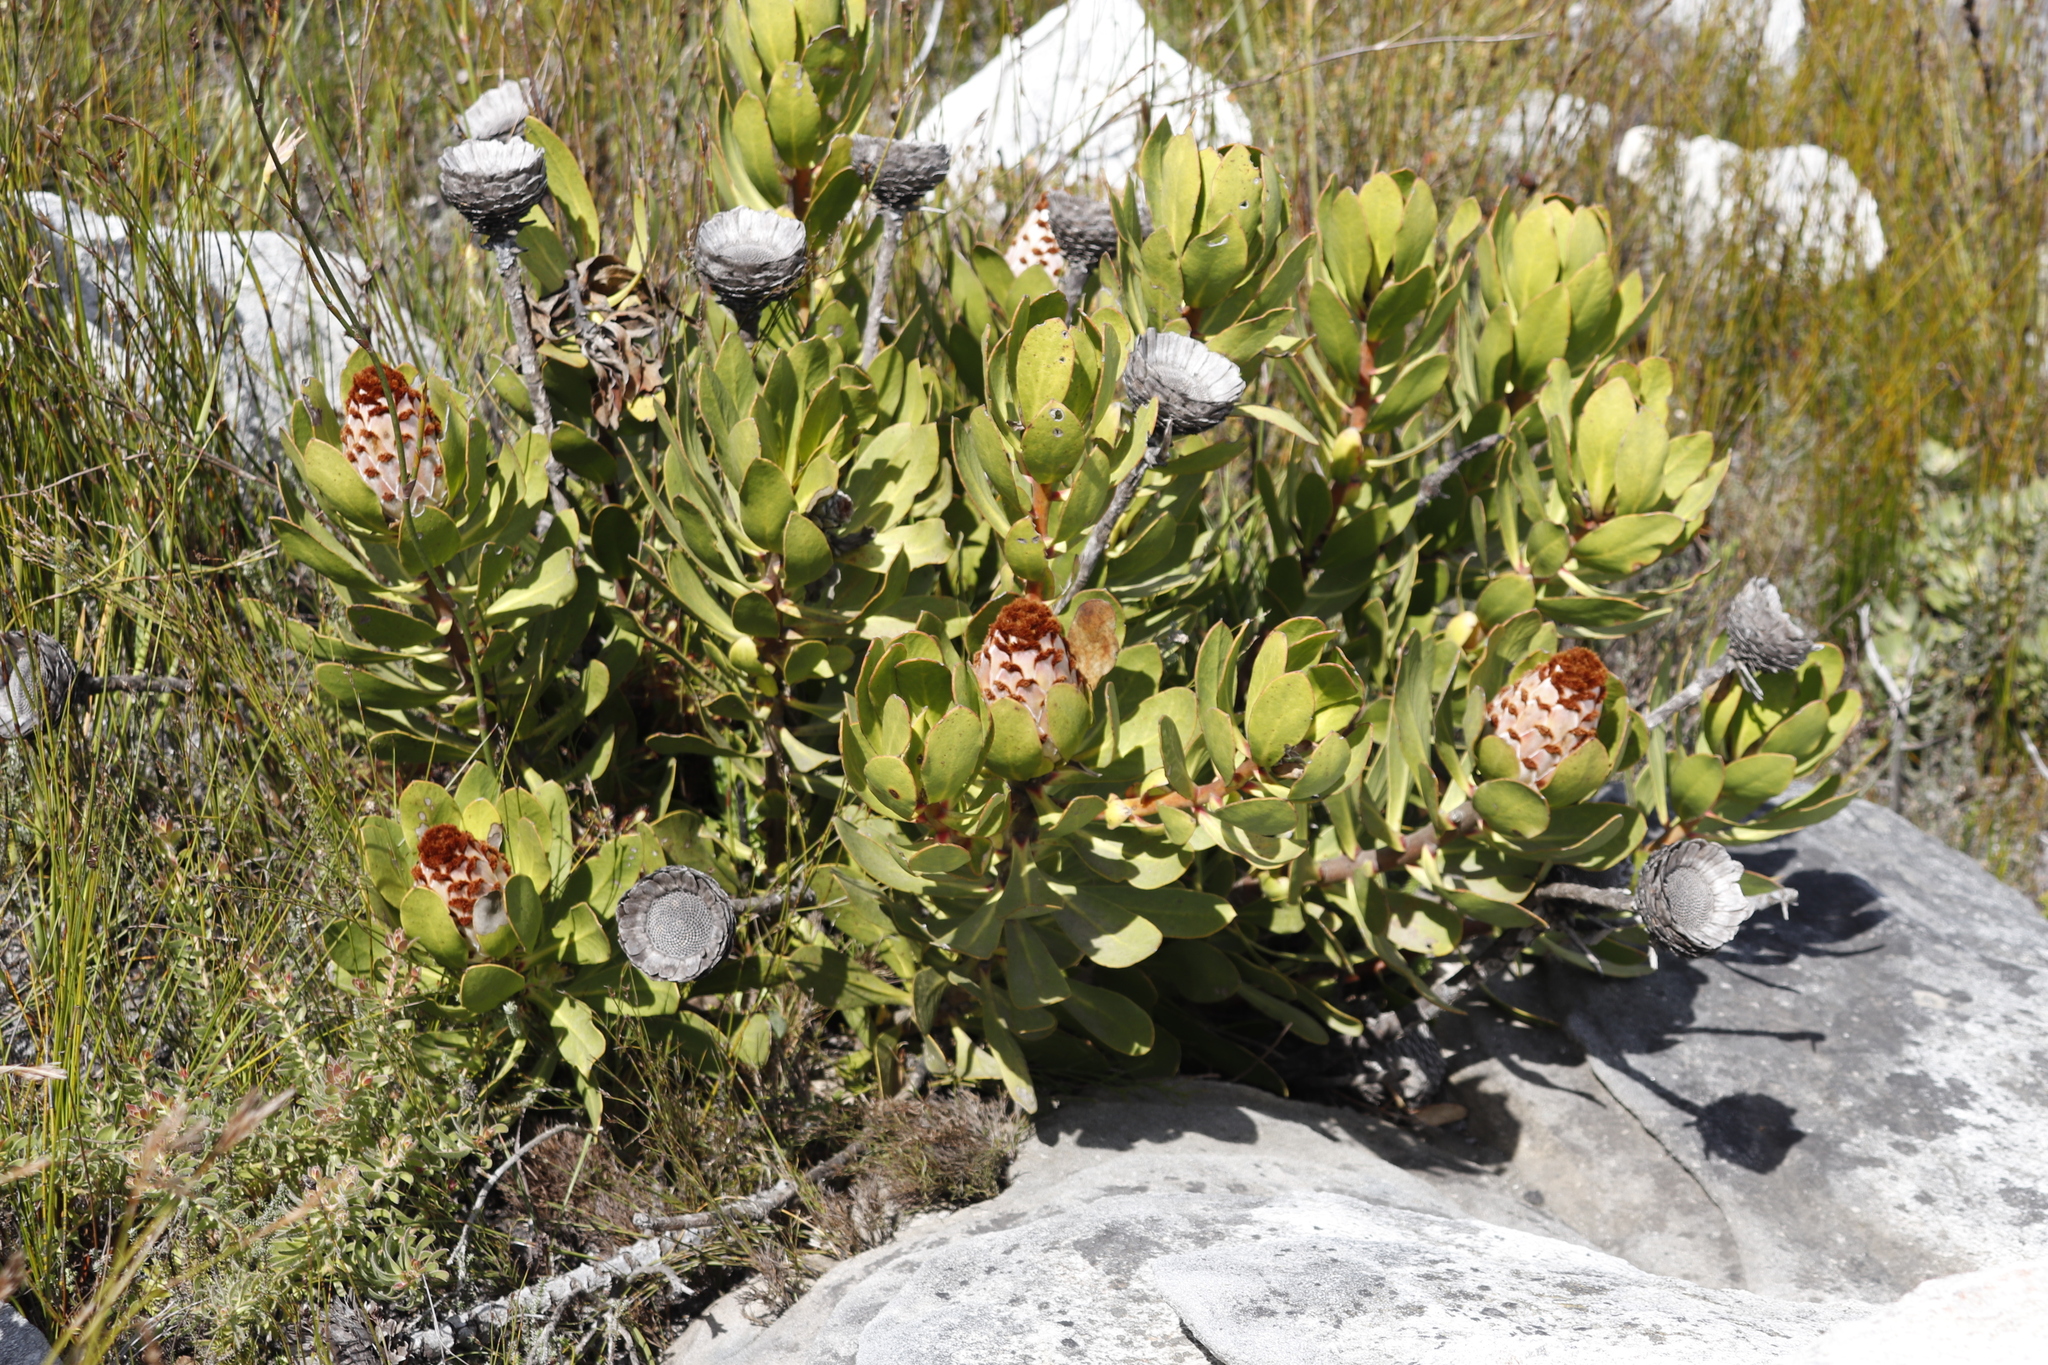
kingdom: Plantae
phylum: Tracheophyta
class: Magnoliopsida
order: Proteales
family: Proteaceae
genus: Protea
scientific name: Protea speciosa
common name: Brown-beard sugarbush
